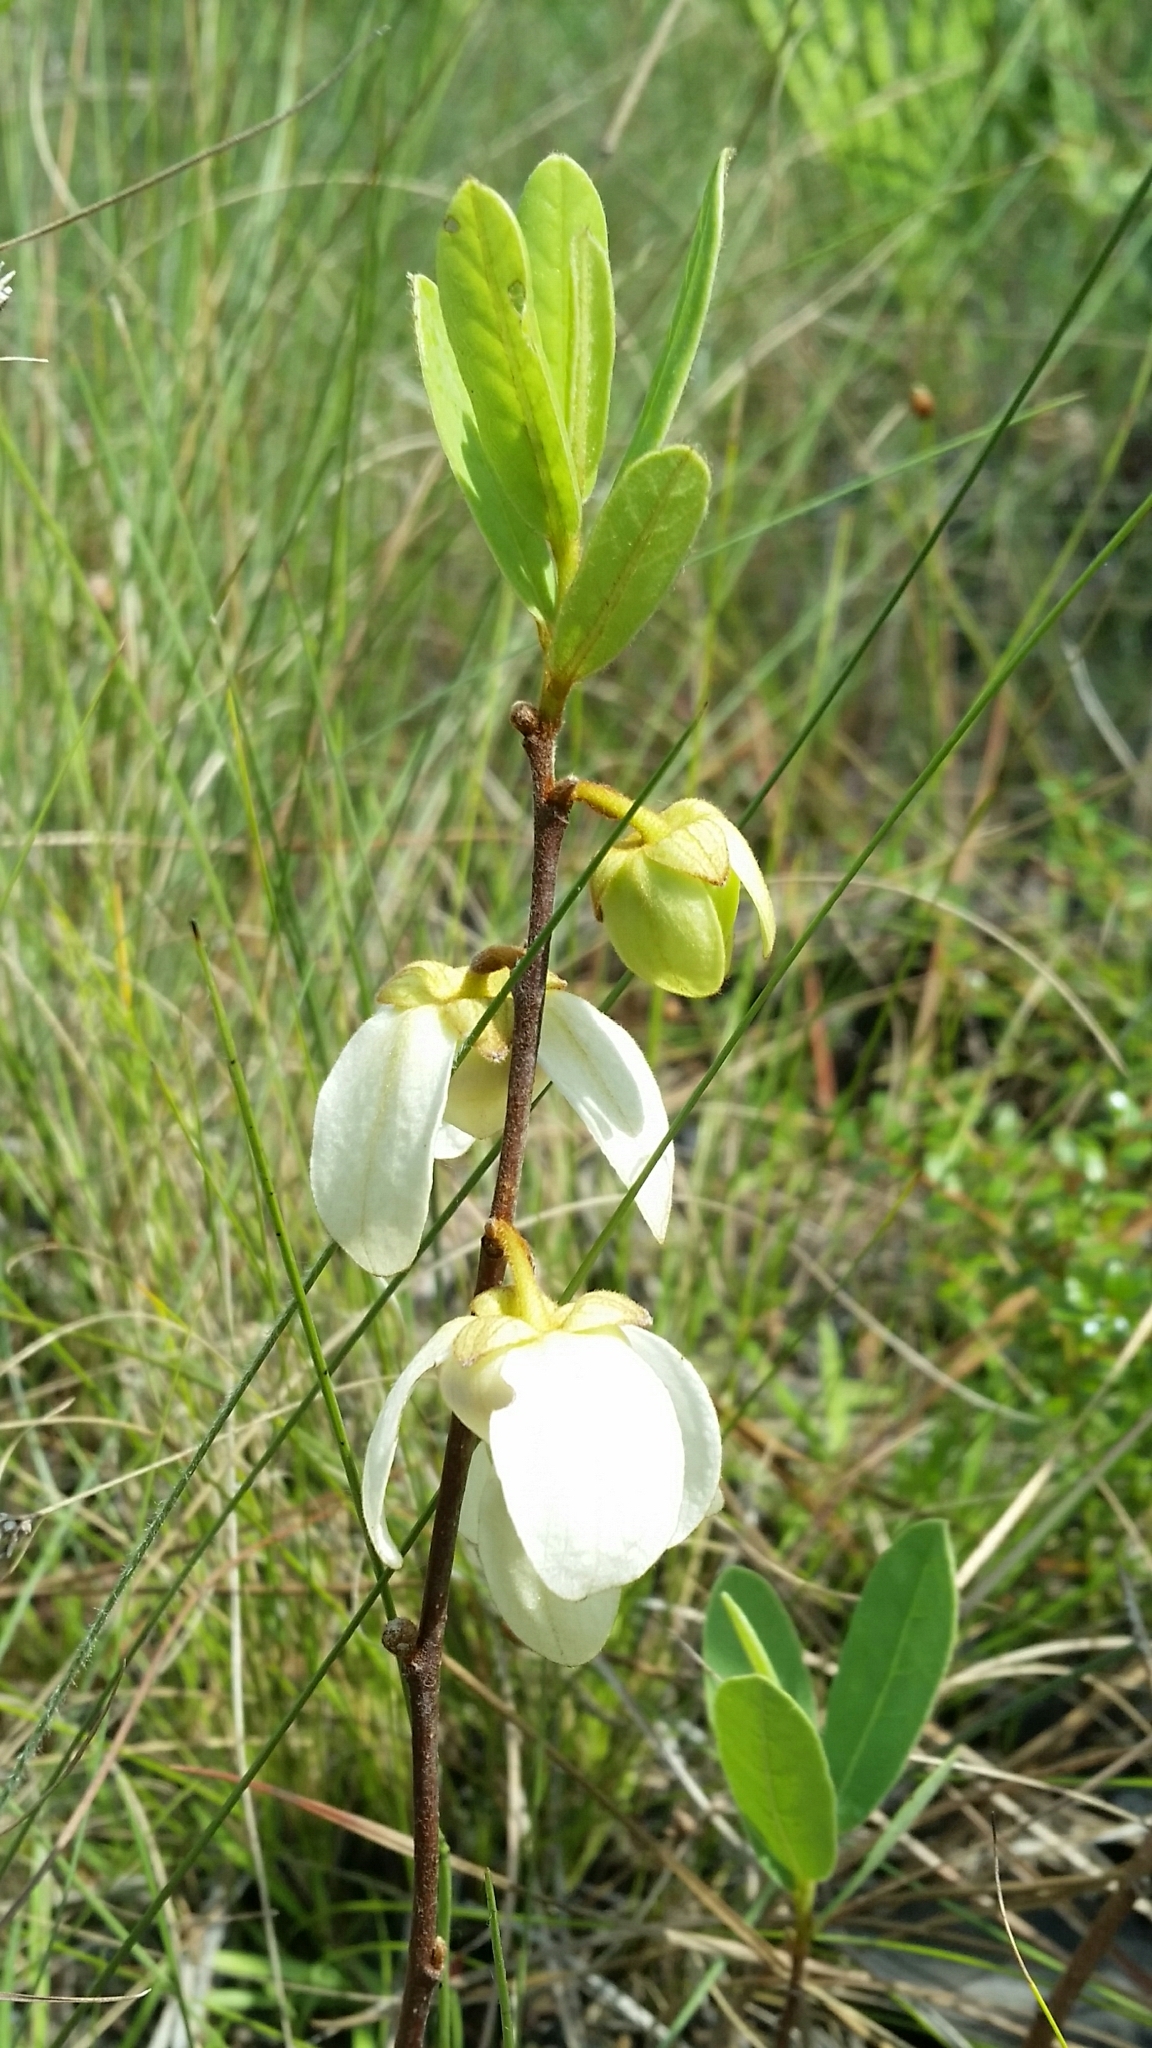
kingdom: Plantae
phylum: Tracheophyta
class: Magnoliopsida
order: Magnoliales
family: Annonaceae
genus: Asimina
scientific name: Asimina reticulata
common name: Flag pawpaw
